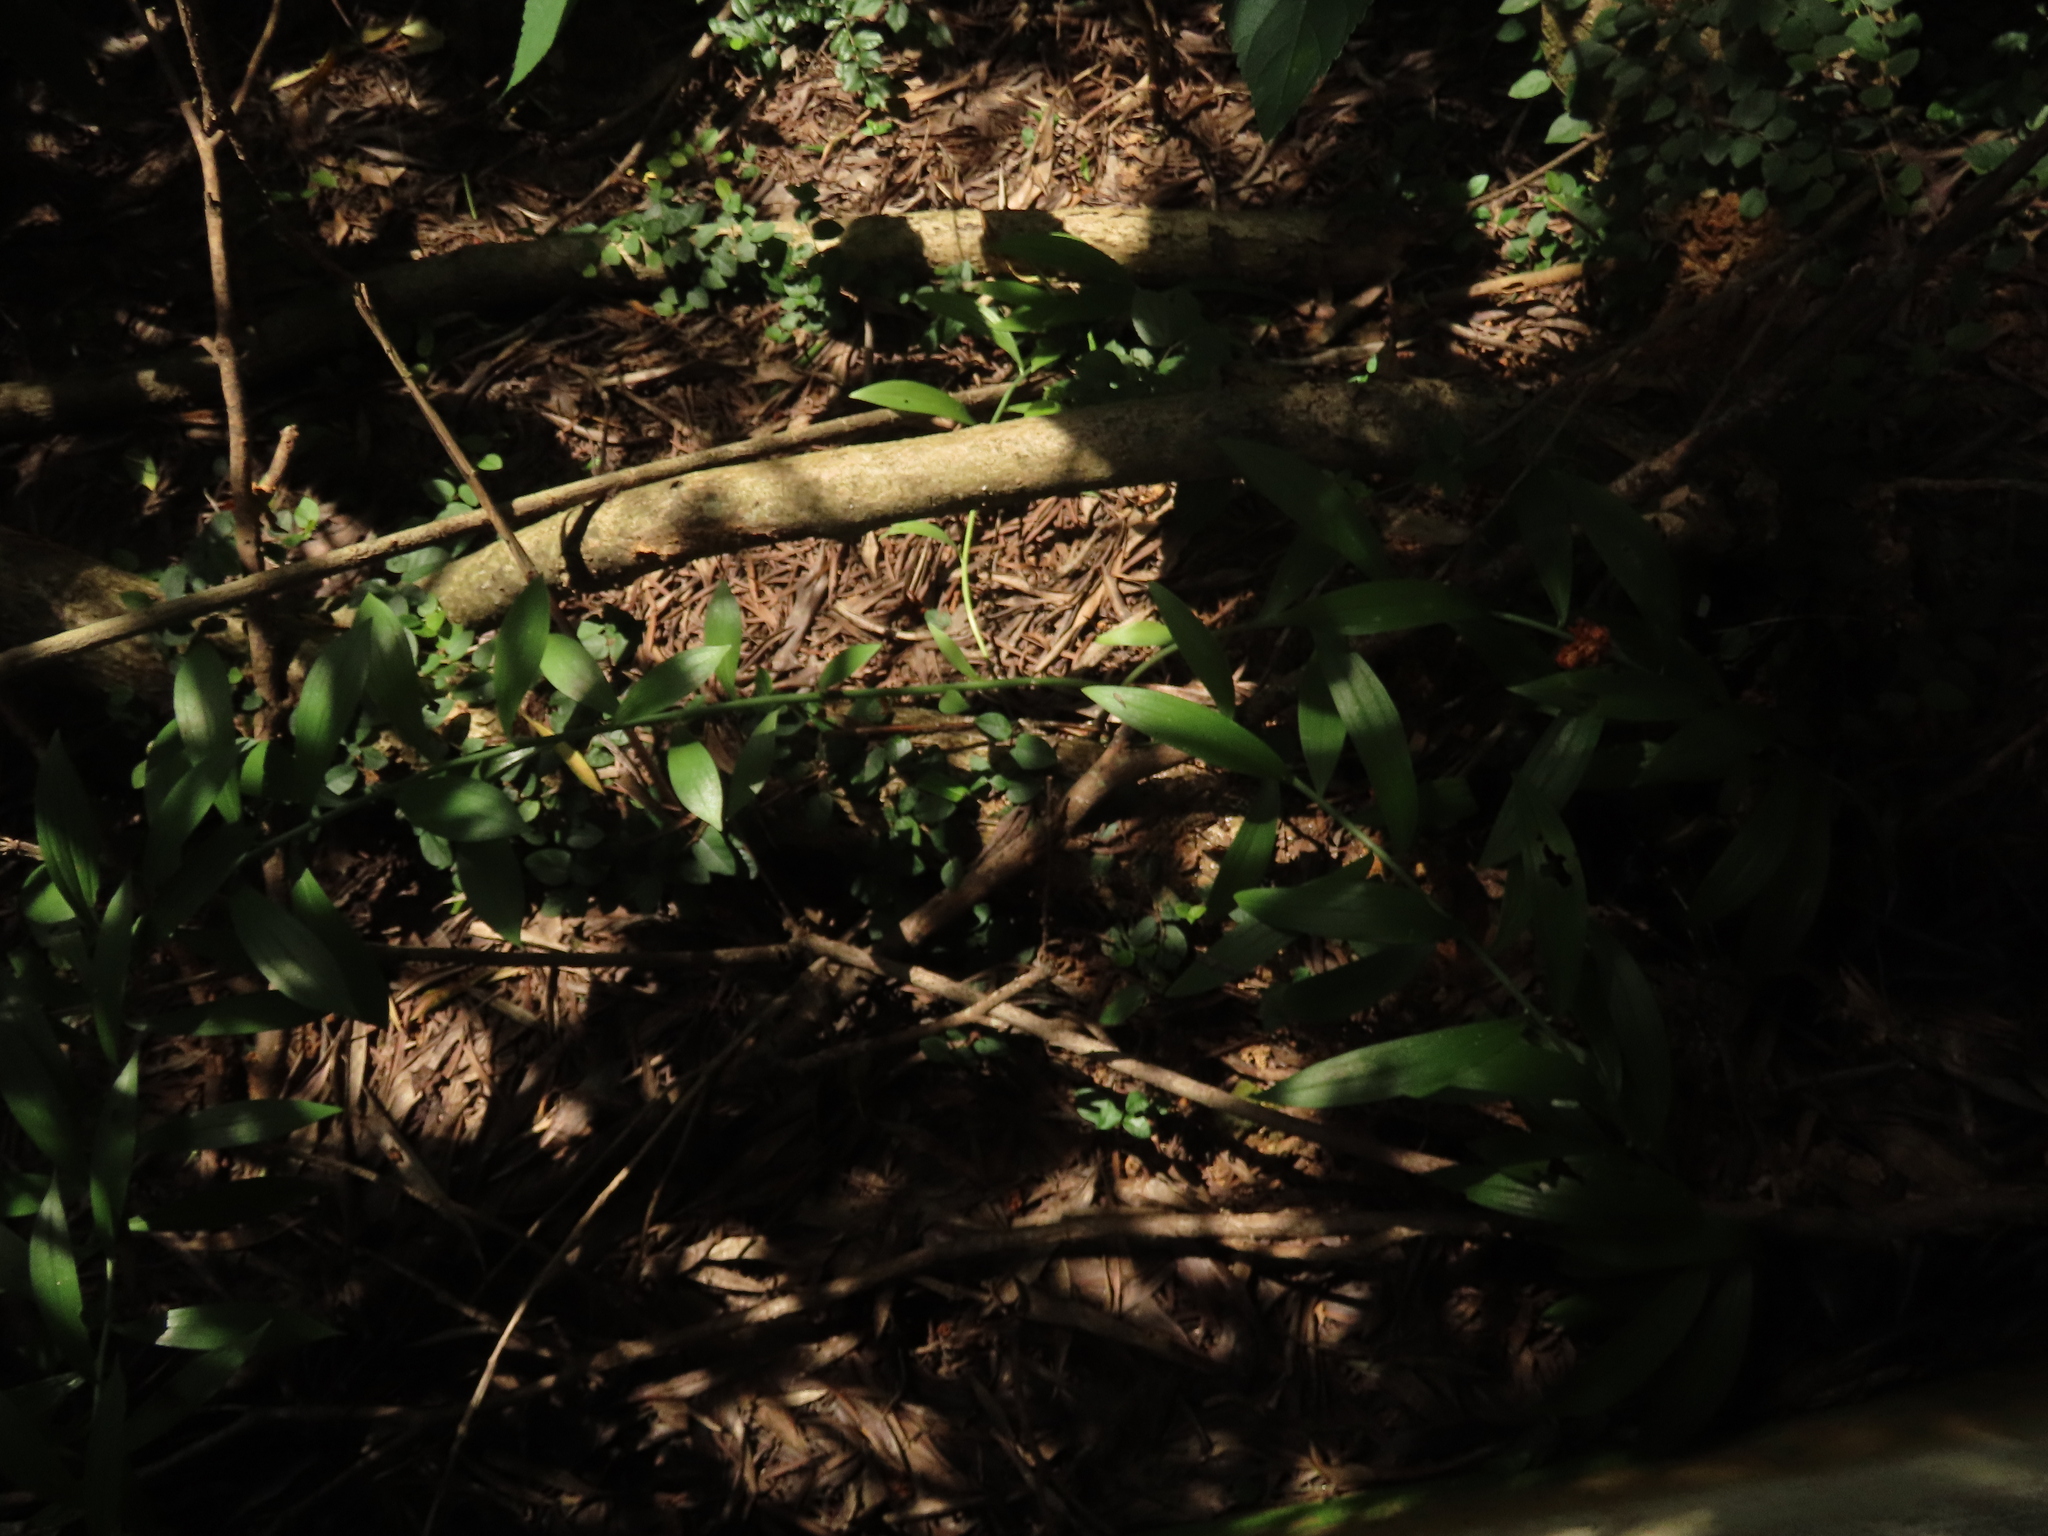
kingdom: Plantae
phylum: Tracheophyta
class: Liliopsida
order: Liliales
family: Liliaceae
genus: Lilium
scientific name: Lilium brownii
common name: Brown's lily
